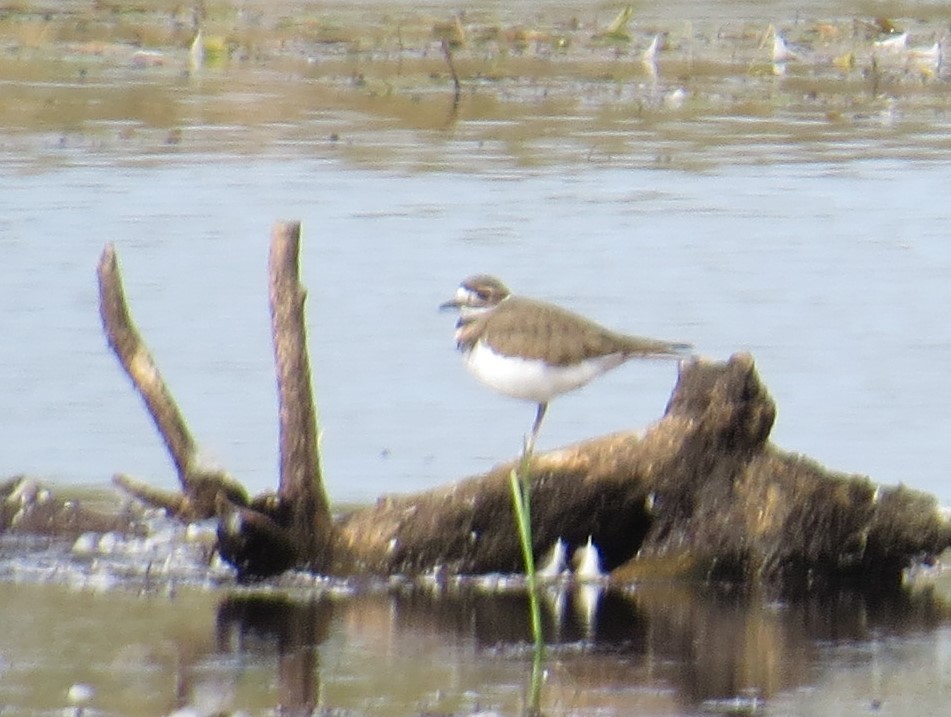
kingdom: Animalia
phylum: Chordata
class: Aves
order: Charadriiformes
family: Charadriidae
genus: Charadrius
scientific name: Charadrius vociferus
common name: Killdeer
